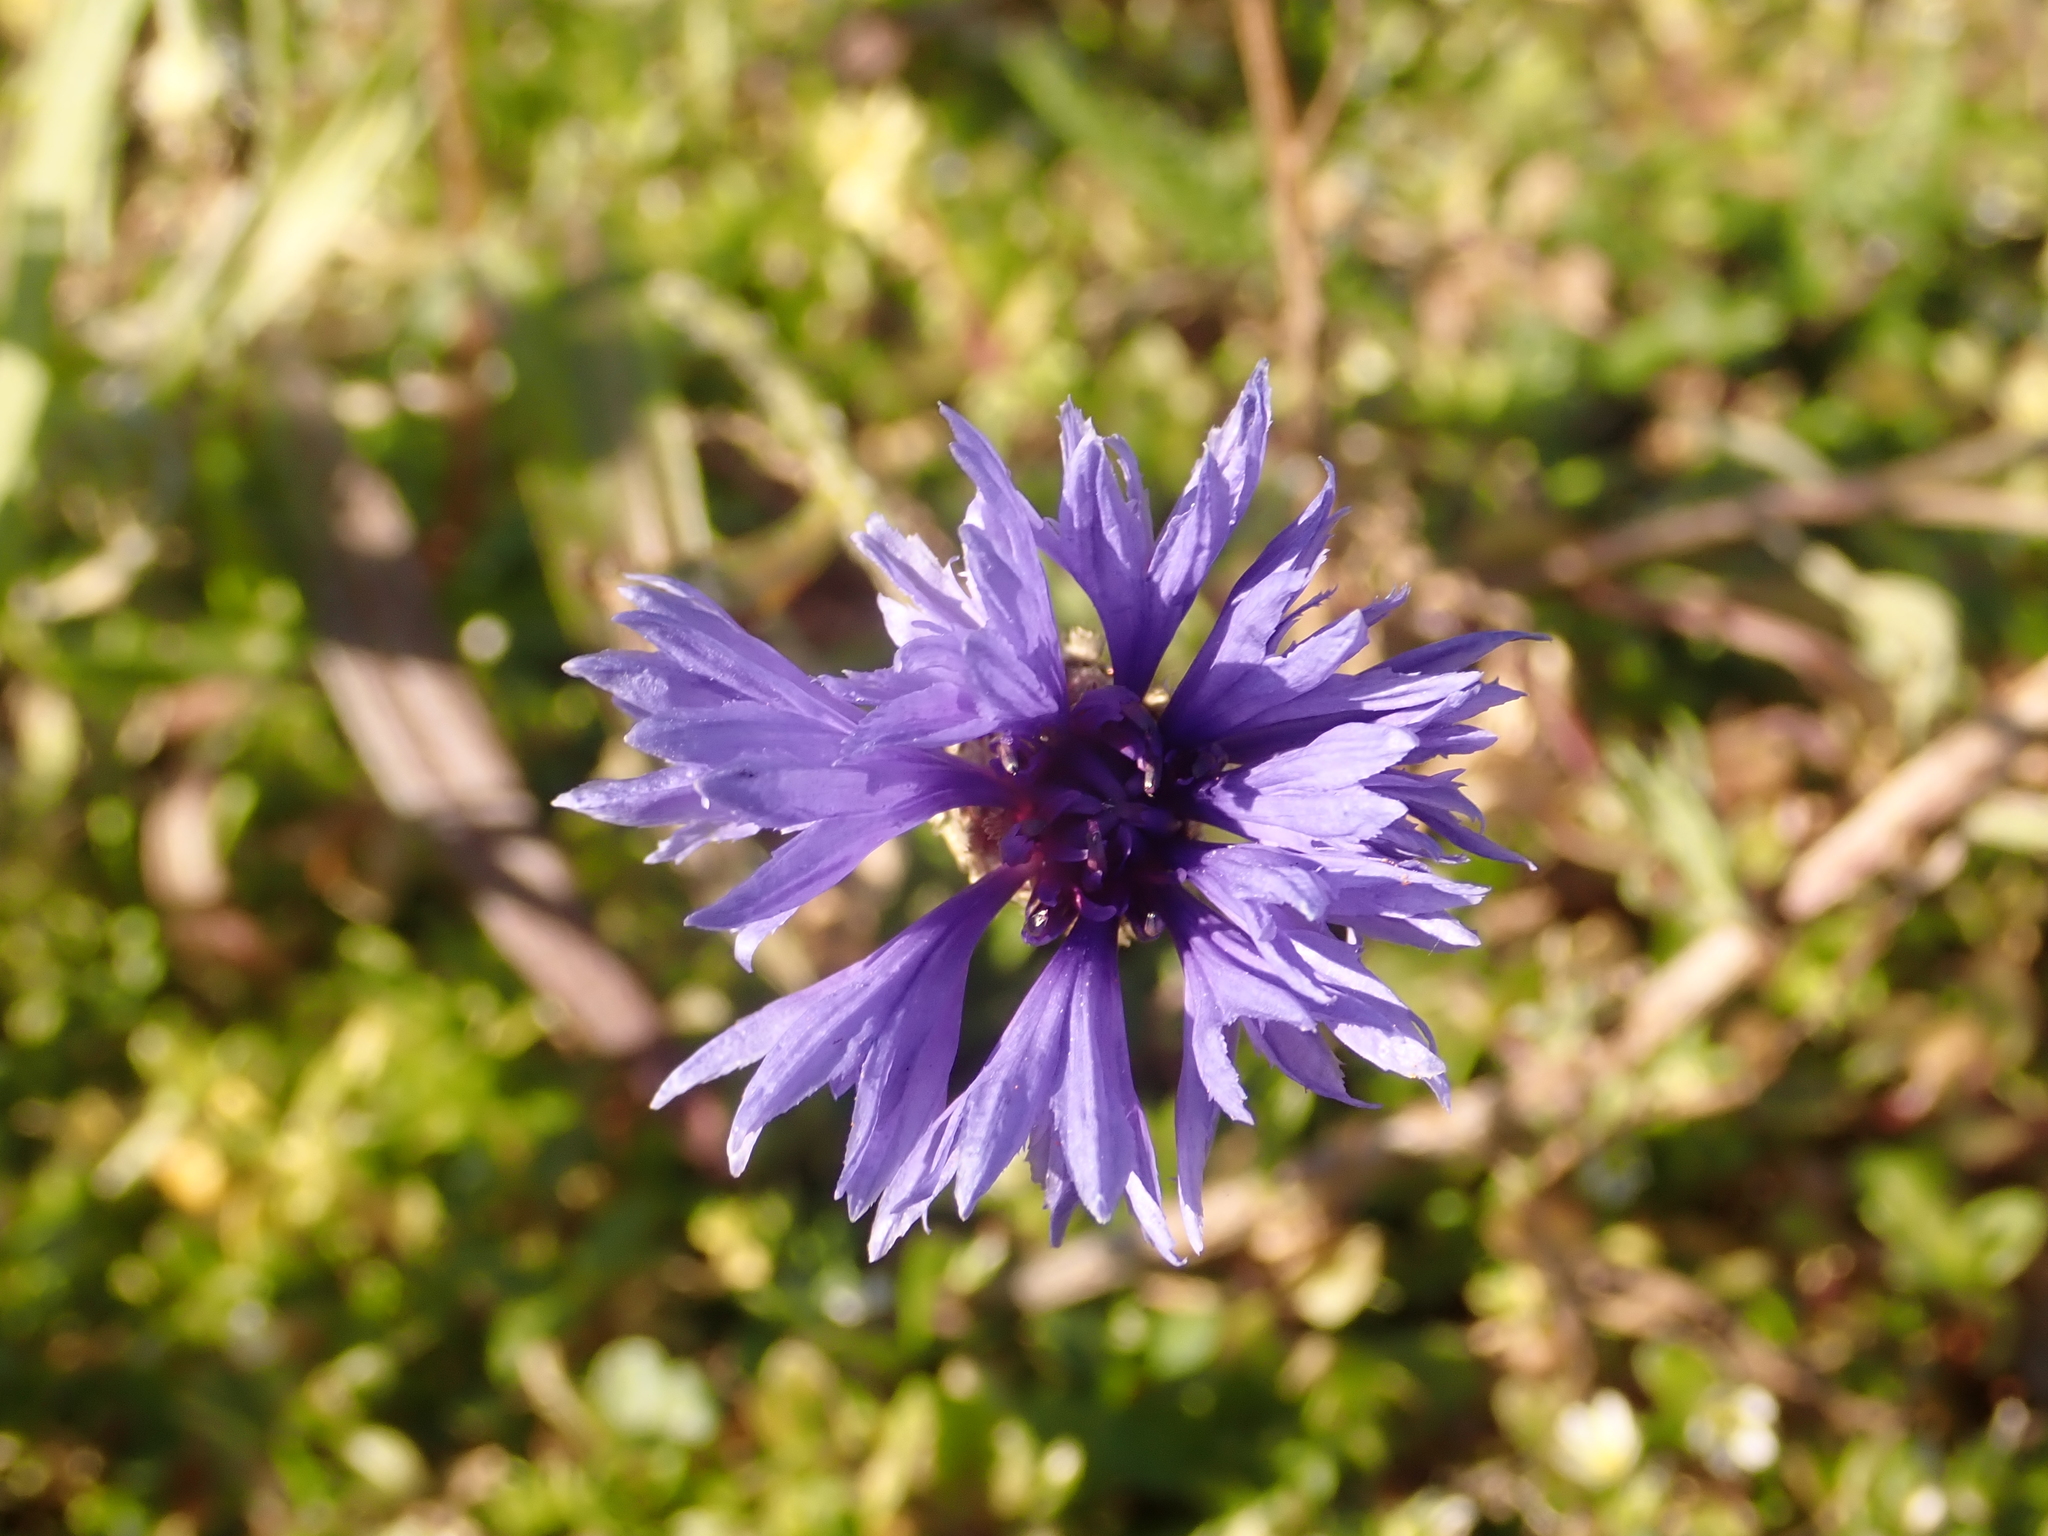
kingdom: Plantae
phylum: Tracheophyta
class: Magnoliopsida
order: Asterales
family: Asteraceae
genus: Centaurea
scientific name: Centaurea cyanus
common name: Cornflower
